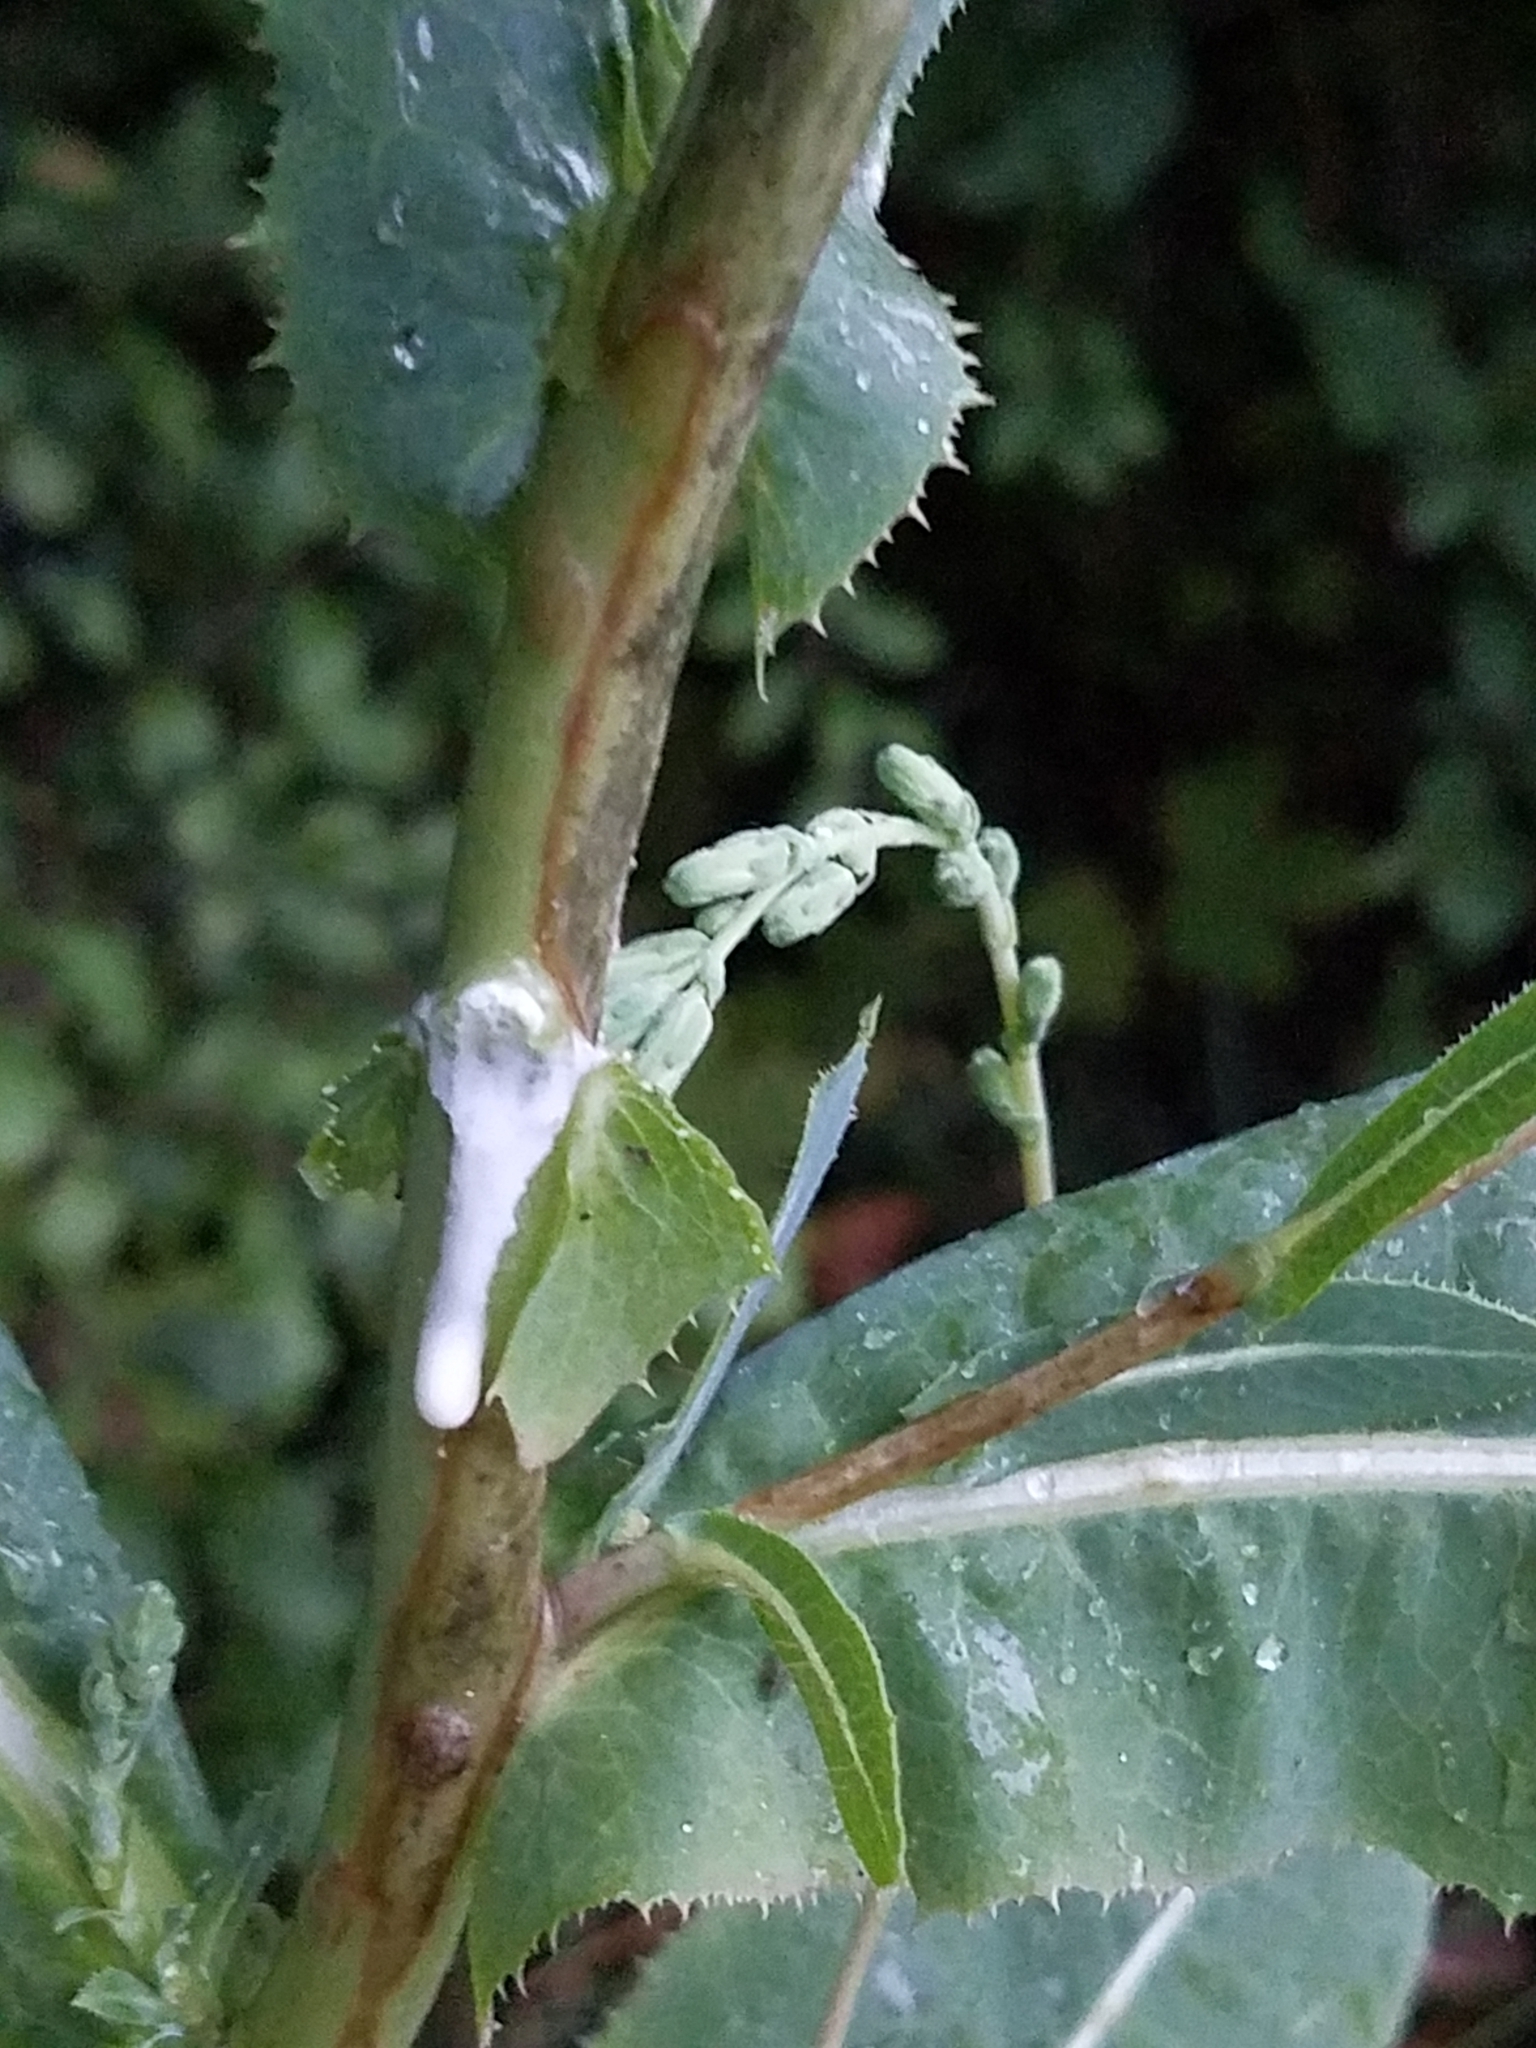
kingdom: Plantae
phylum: Tracheophyta
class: Magnoliopsida
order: Asterales
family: Asteraceae
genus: Lactuca
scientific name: Lactuca serriola
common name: Prickly lettuce
